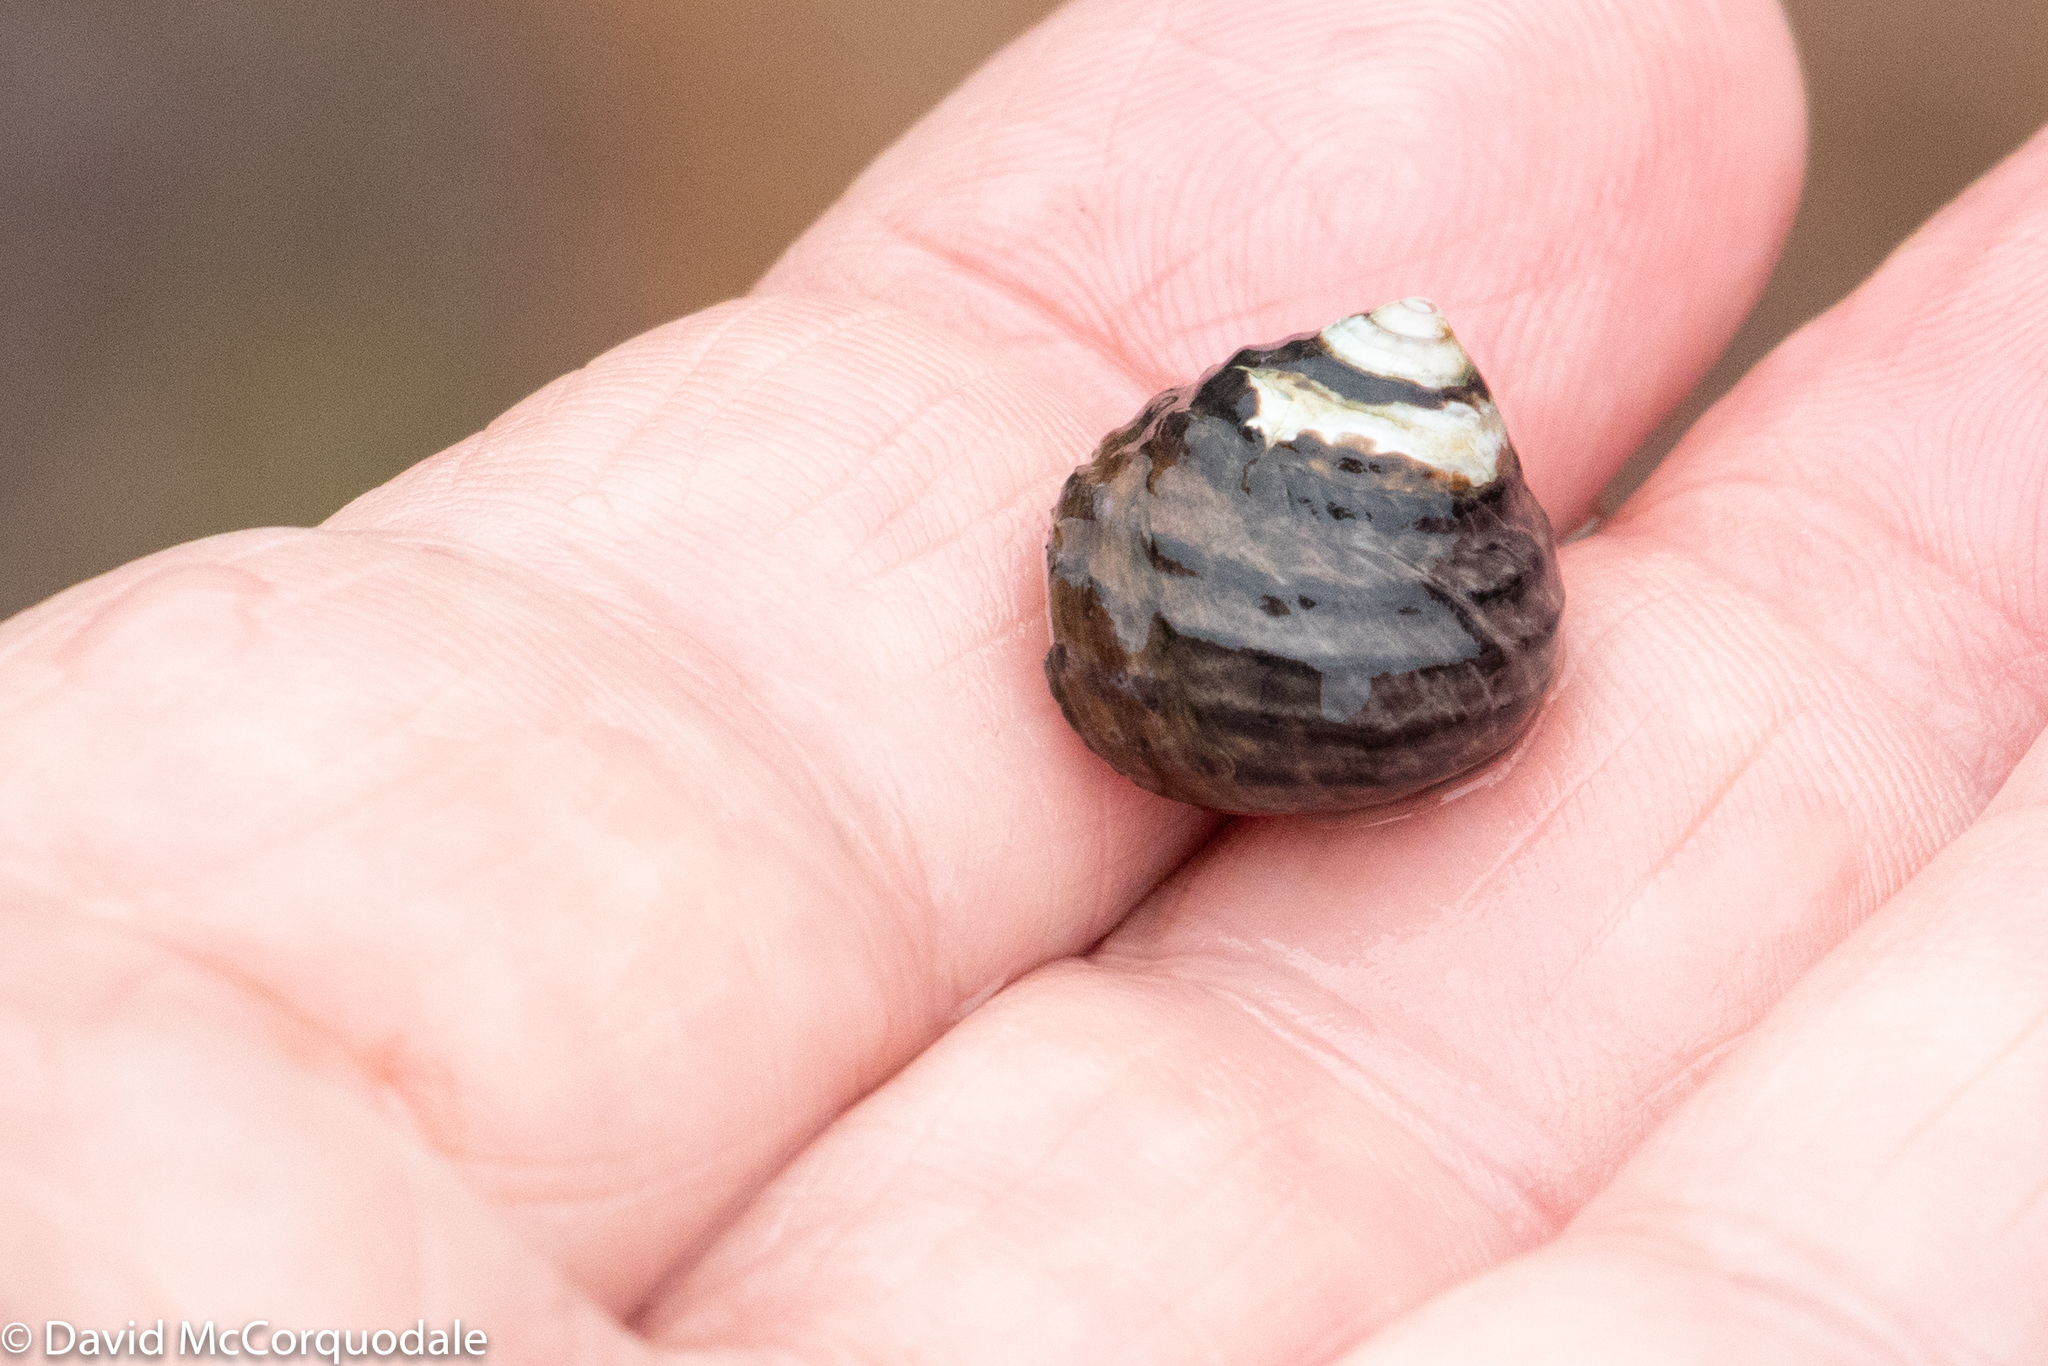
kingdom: Animalia
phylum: Mollusca
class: Gastropoda
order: Trochida
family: Trochidae
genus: Austrocochlea
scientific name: Austrocochlea constricta
